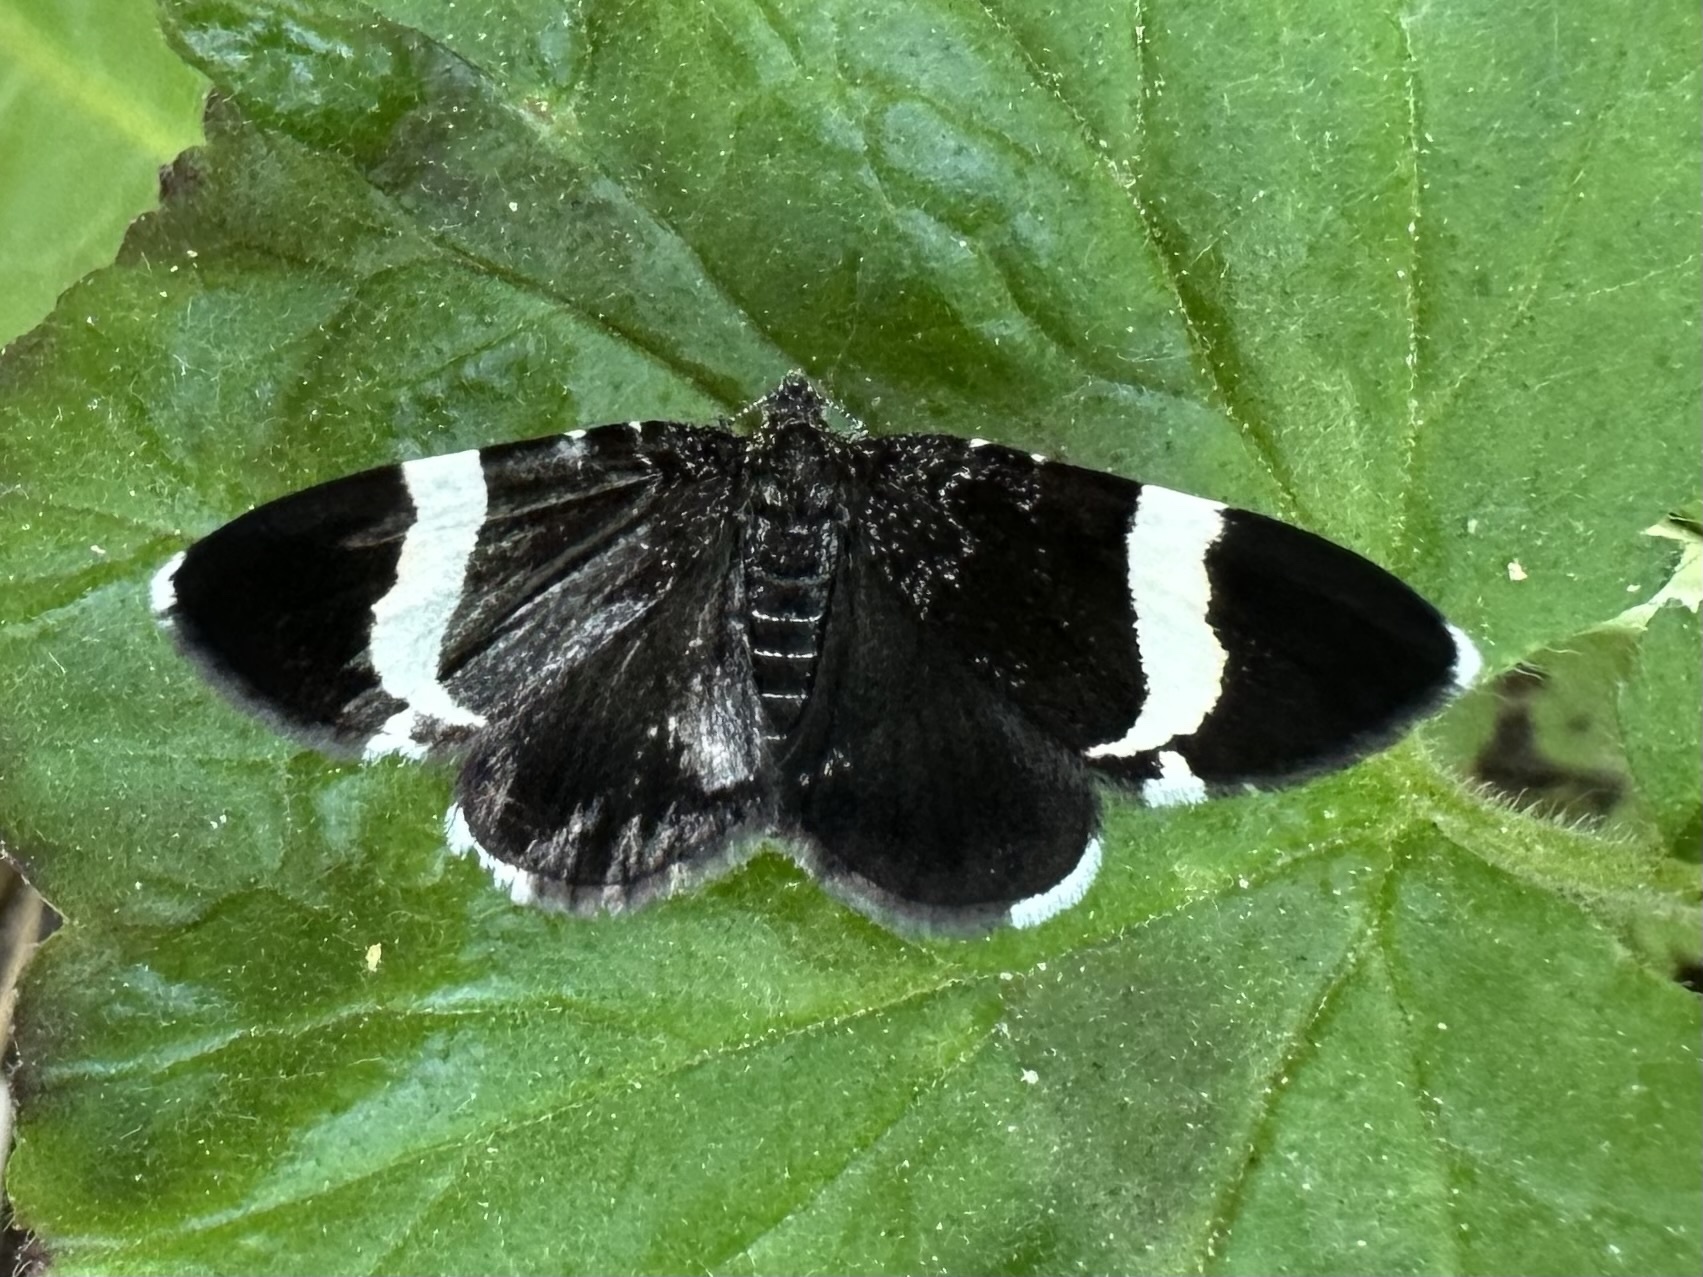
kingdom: Animalia
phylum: Arthropoda
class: Insecta
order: Lepidoptera
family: Geometridae
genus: Trichodezia
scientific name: Trichodezia albovittata
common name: White striped black
